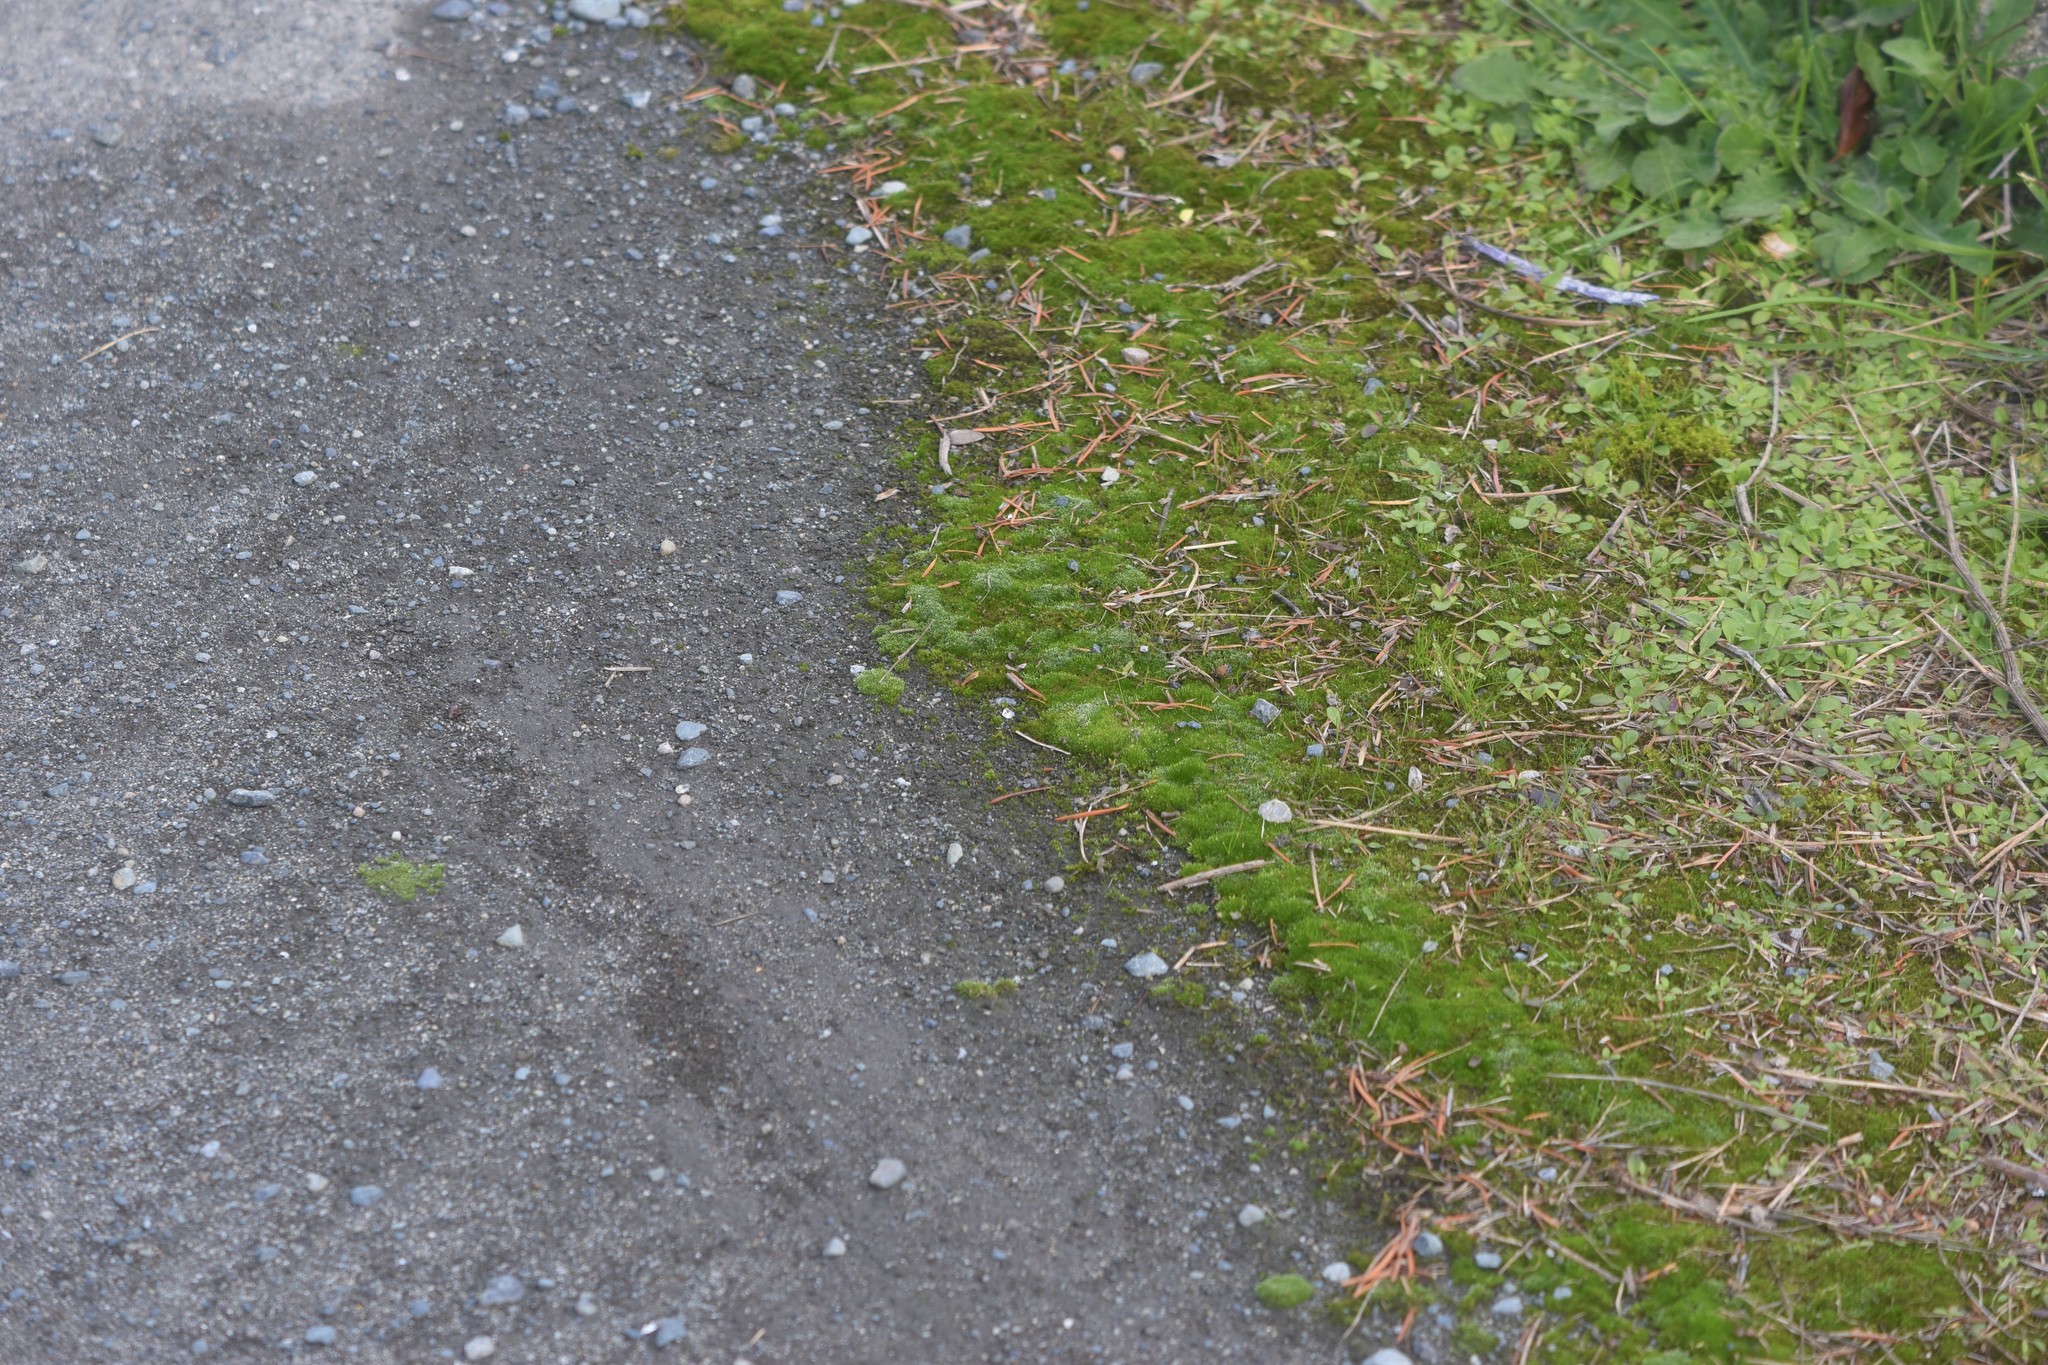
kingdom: Plantae
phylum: Bryophyta
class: Bryopsida
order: Bryales
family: Bryaceae
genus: Bryum
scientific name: Bryum argenteum
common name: Silver-moss
